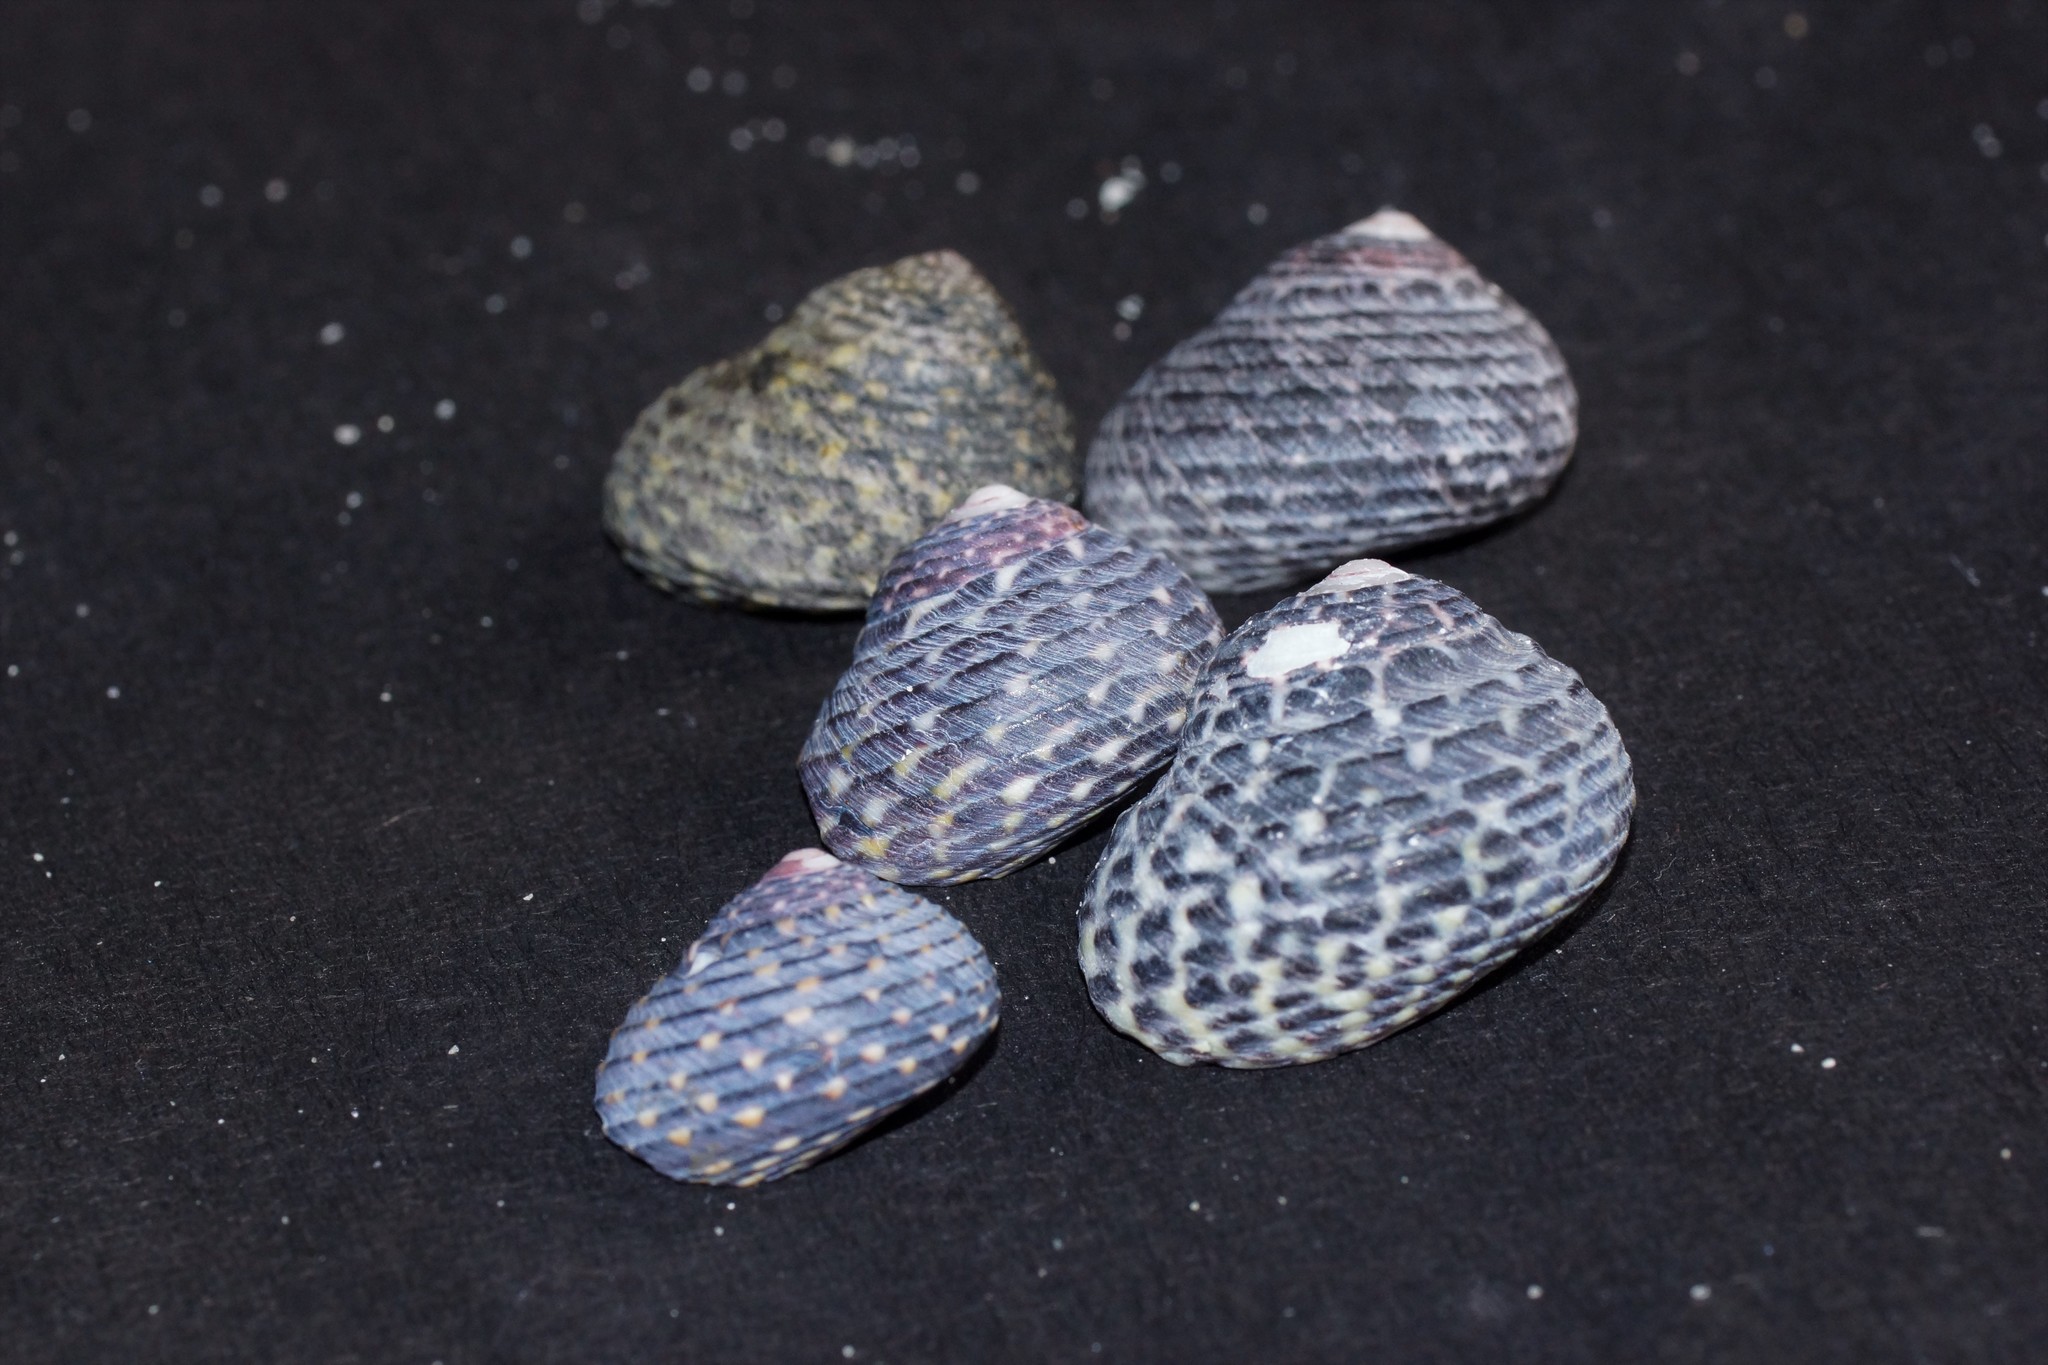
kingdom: Animalia
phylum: Mollusca
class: Gastropoda
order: Trochida
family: Trochidae
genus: Diloma
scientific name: Diloma concameratum
